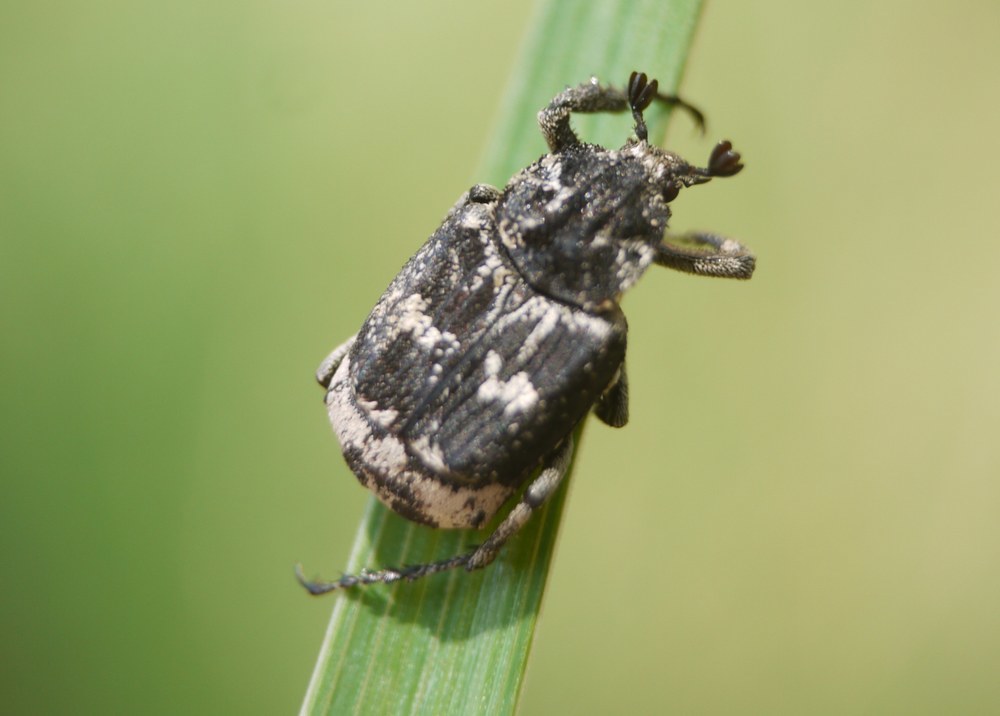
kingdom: Animalia
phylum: Arthropoda
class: Insecta
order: Coleoptera
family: Scarabaeidae
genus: Valgus
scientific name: Valgus hemipterus
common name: Bug flower chafer
